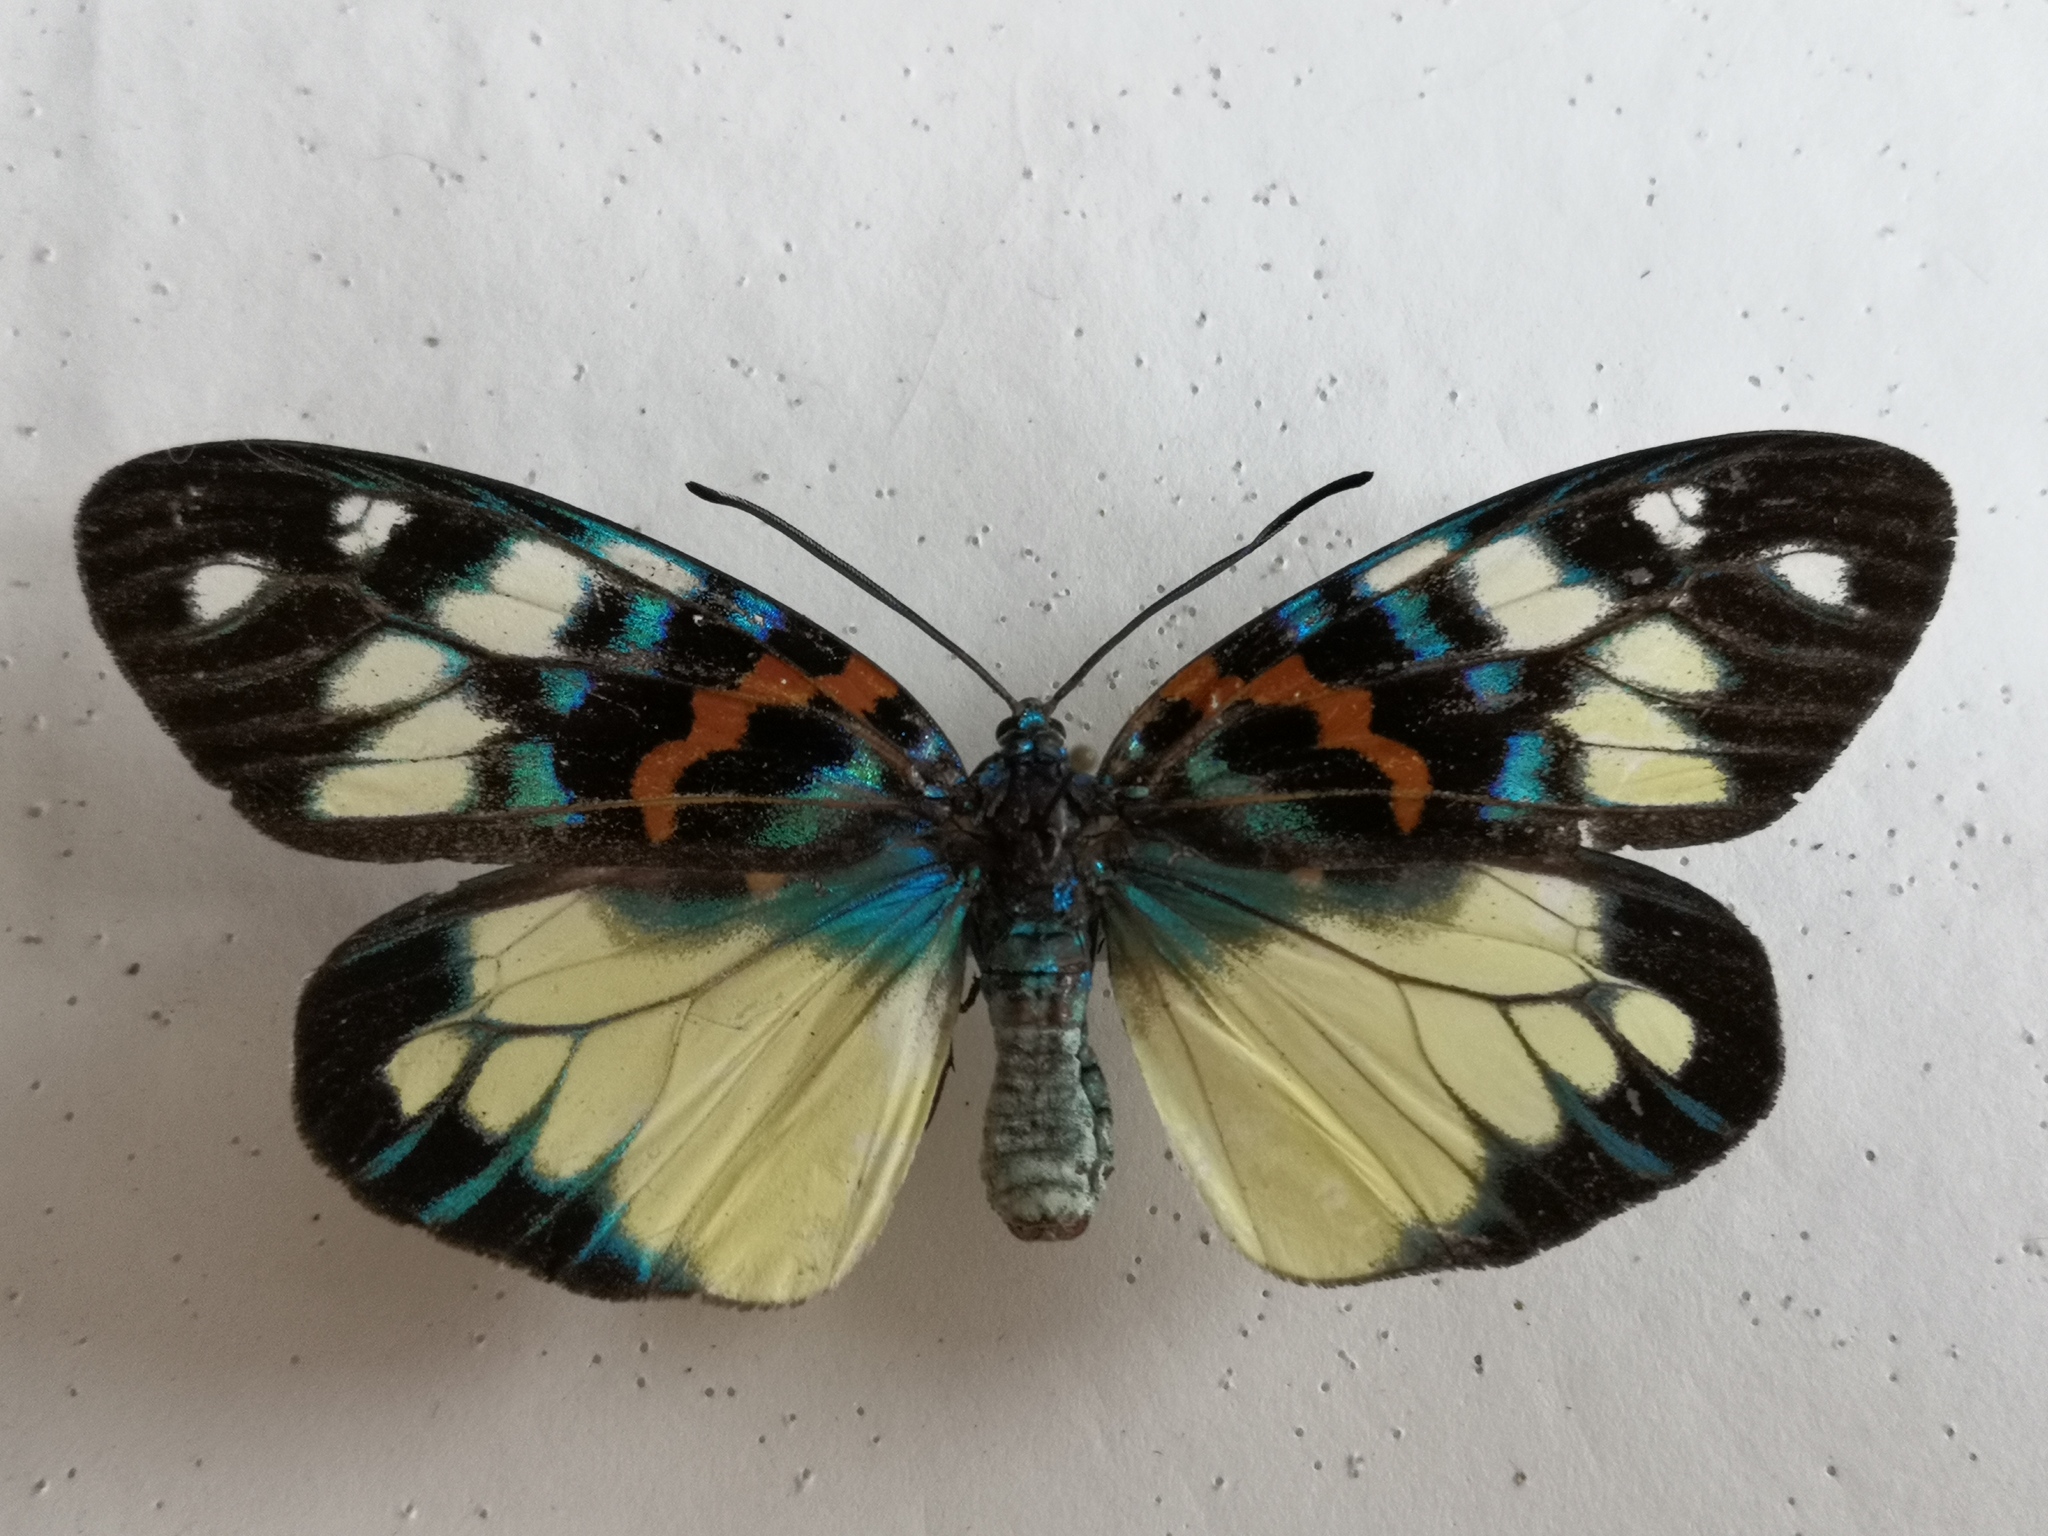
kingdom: Animalia
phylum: Arthropoda
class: Insecta
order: Lepidoptera
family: Zygaenidae
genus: Erasmia
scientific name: Erasmia pulchella
